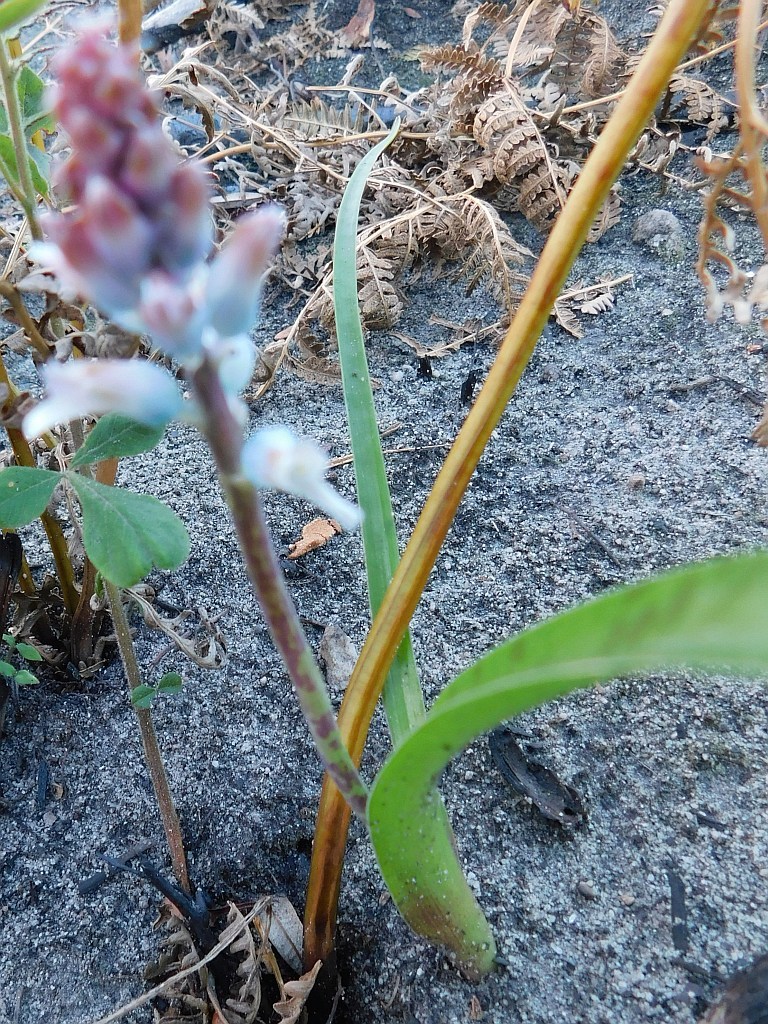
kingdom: Plantae
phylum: Tracheophyta
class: Liliopsida
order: Asparagales
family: Asparagaceae
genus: Lachenalia
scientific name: Lachenalia judithiae
